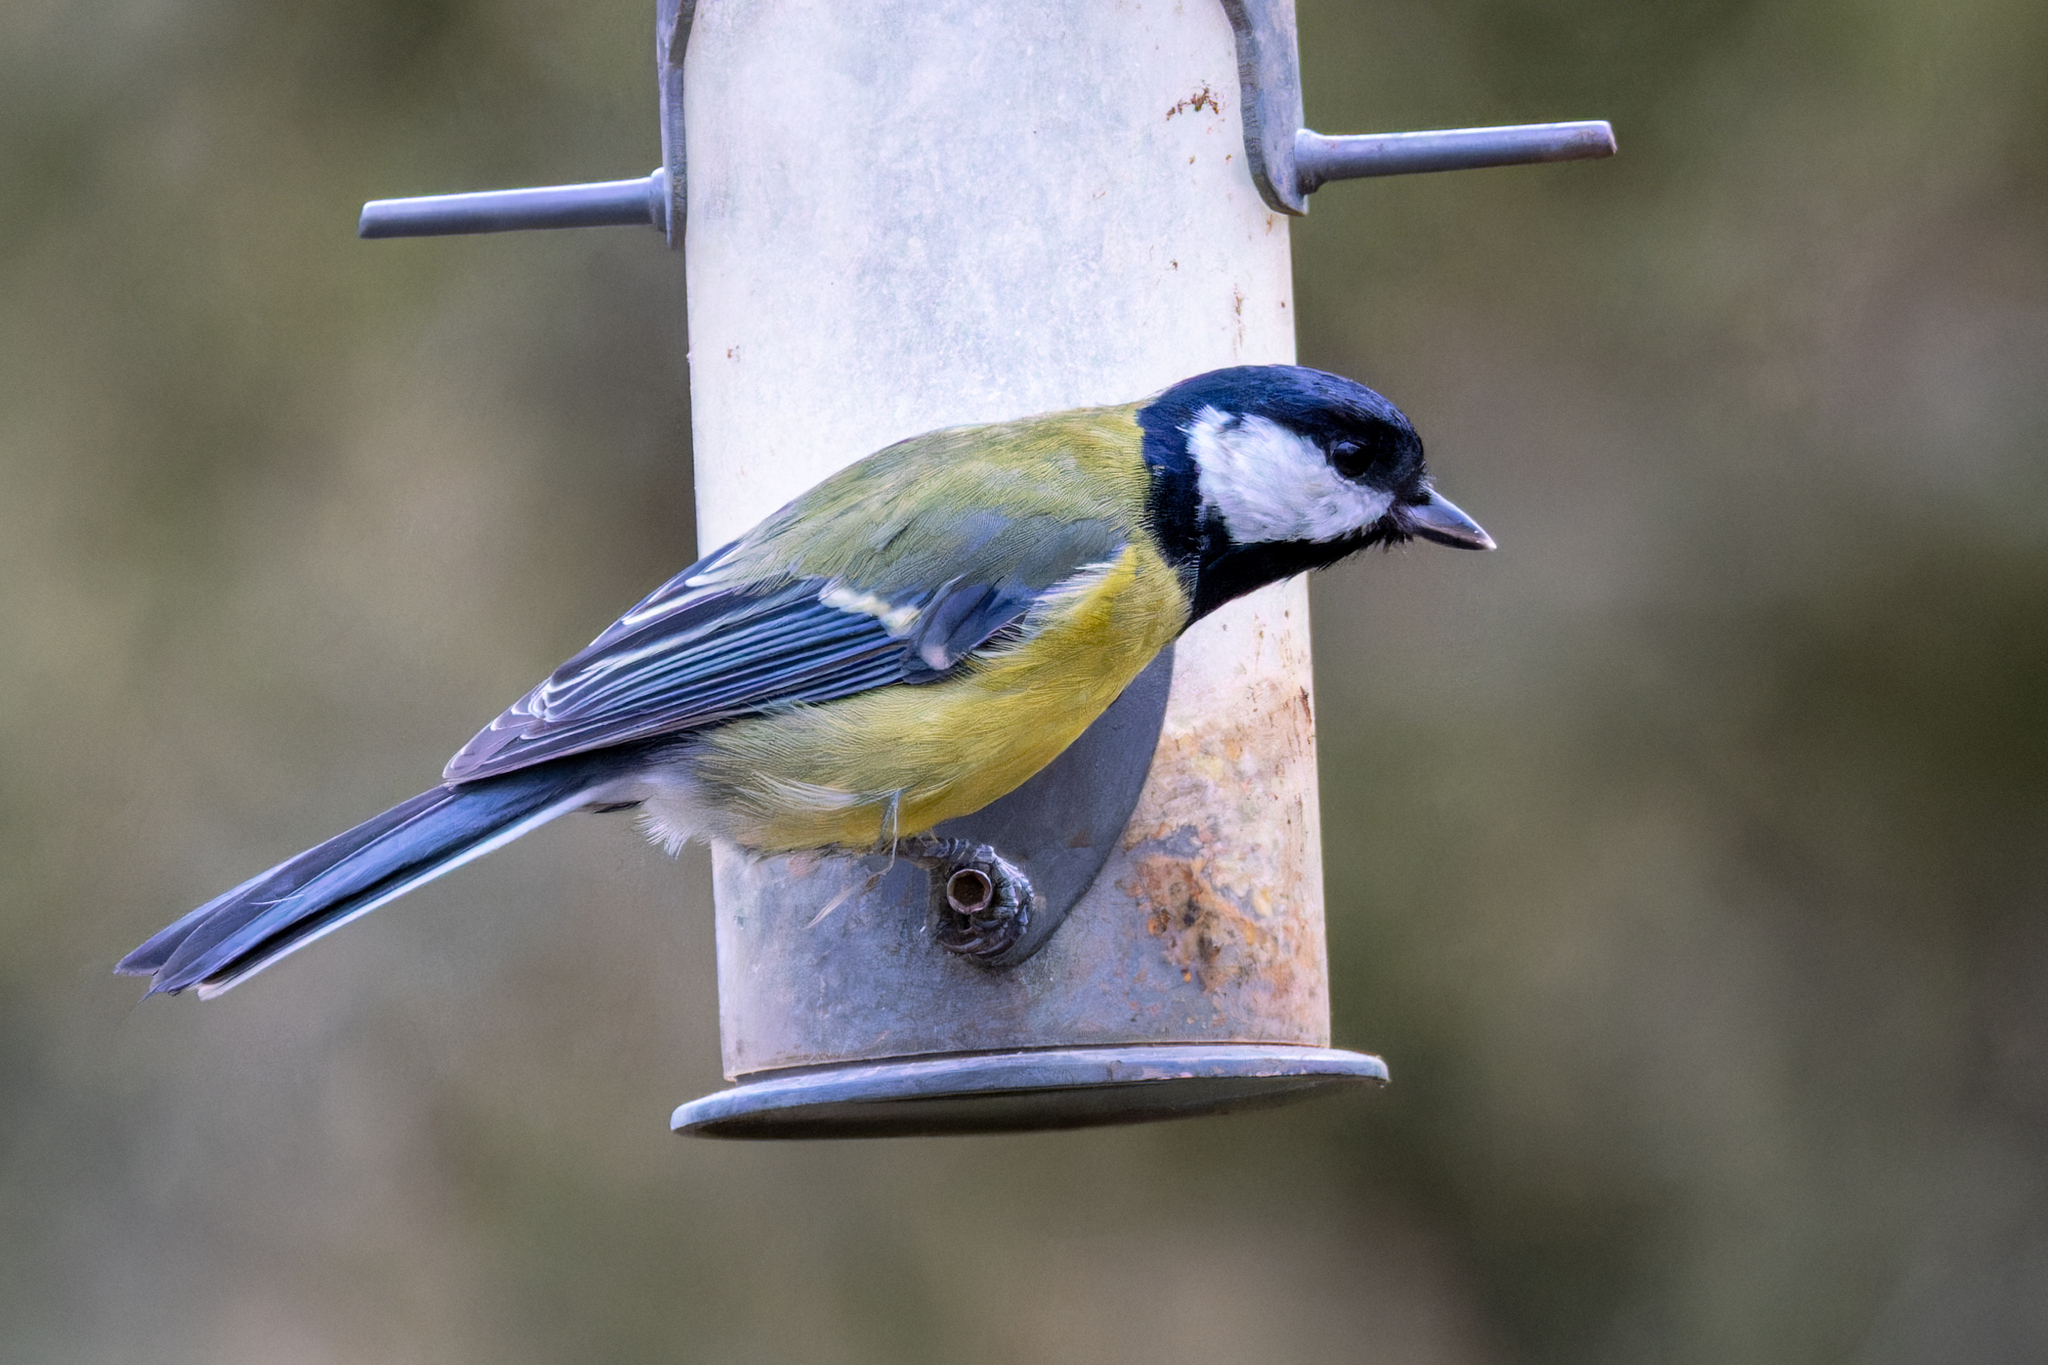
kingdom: Animalia
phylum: Chordata
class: Aves
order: Passeriformes
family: Paridae
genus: Parus
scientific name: Parus major
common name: Great tit
